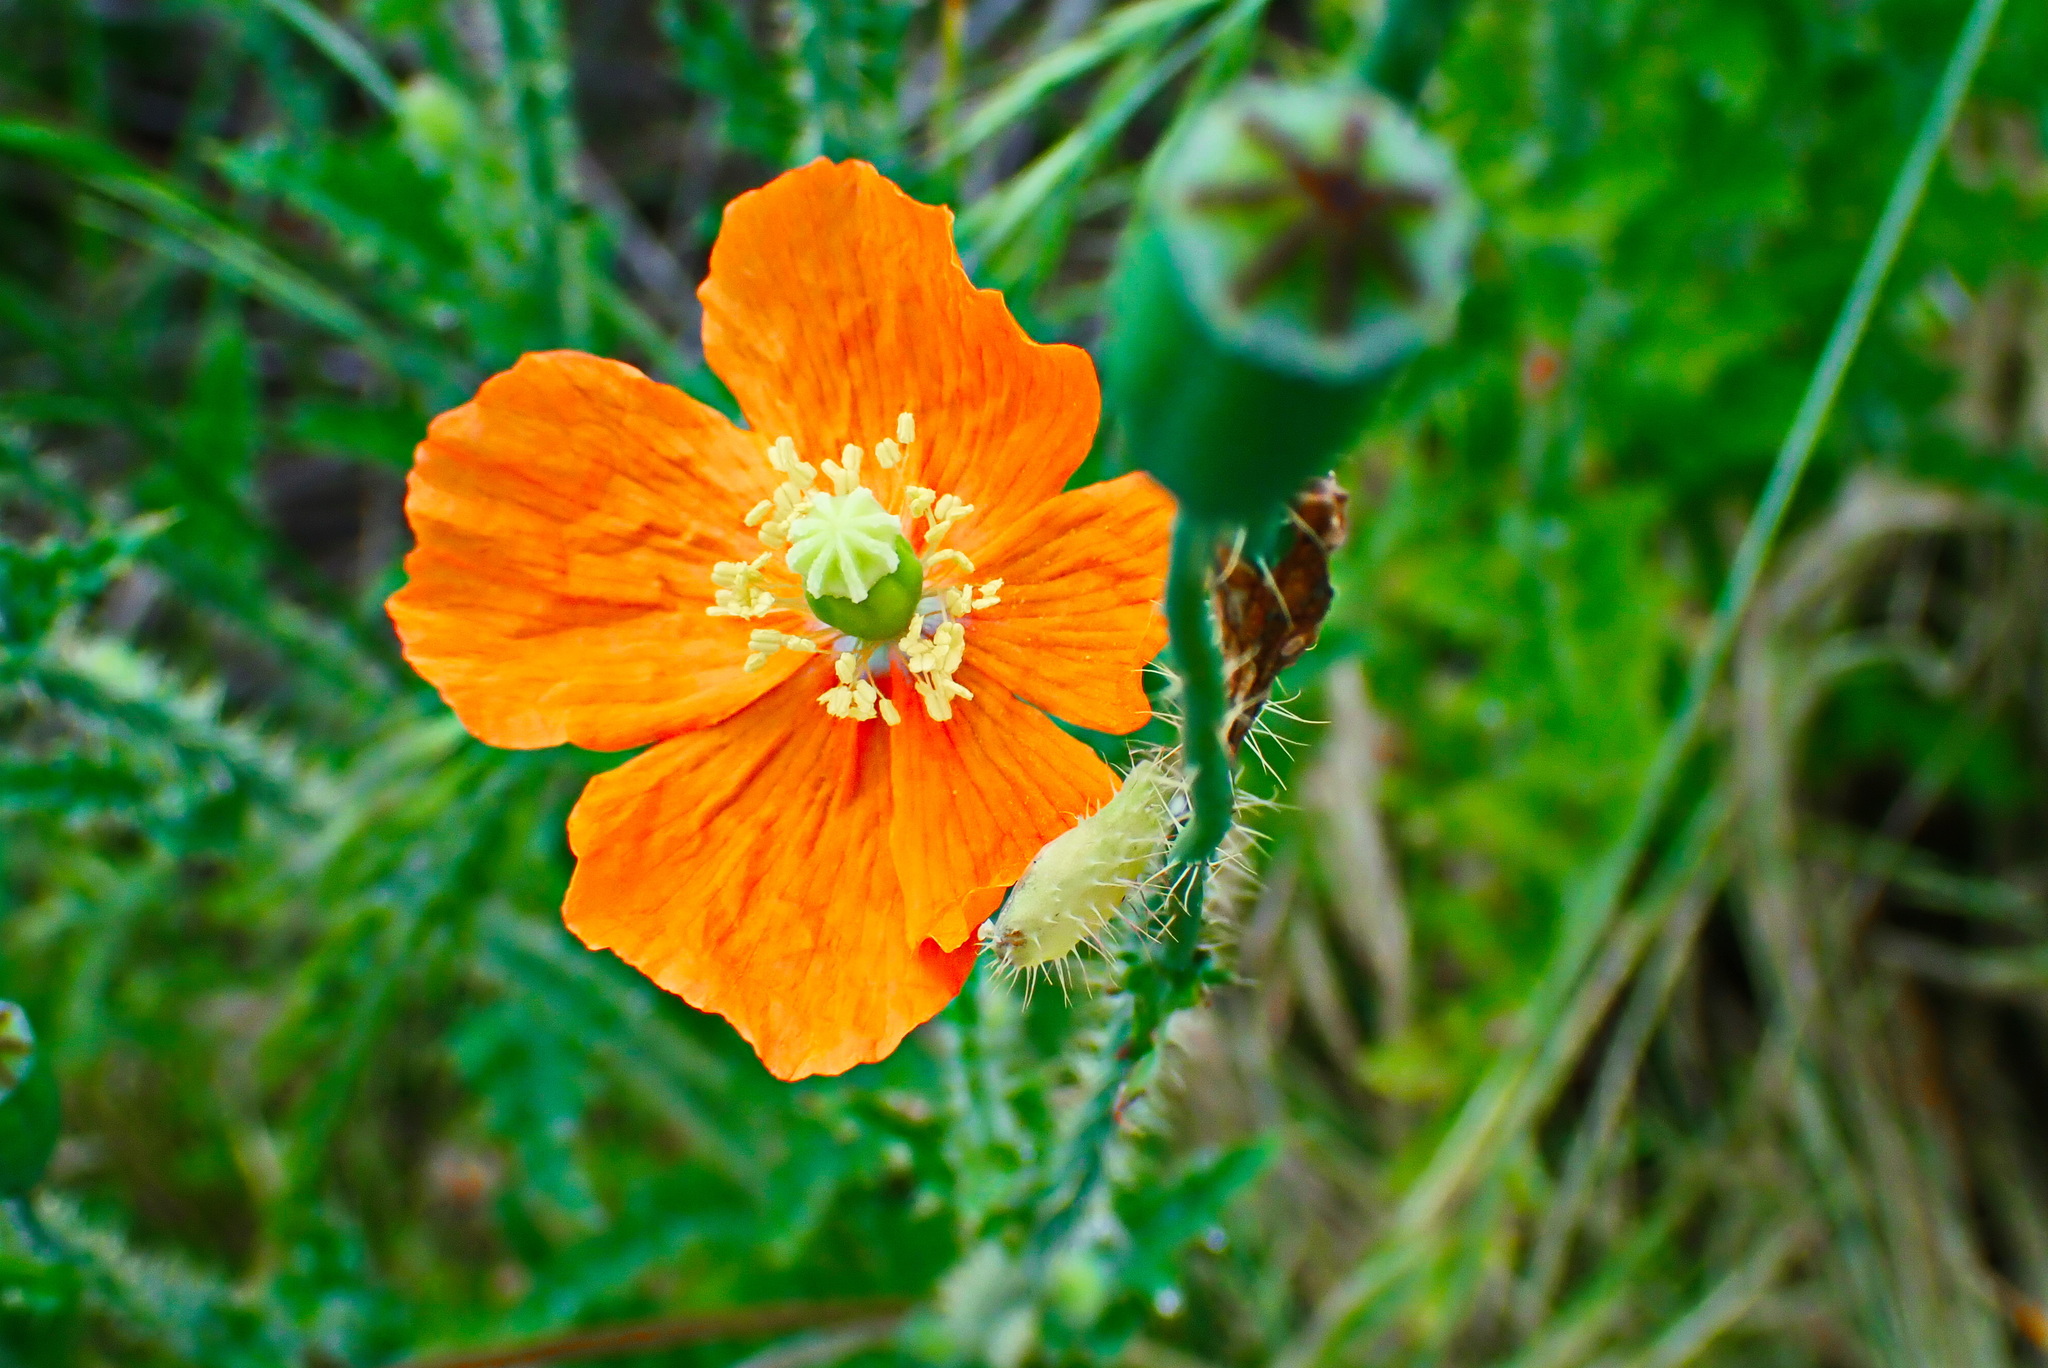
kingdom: Plantae
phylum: Tracheophyta
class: Magnoliopsida
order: Ranunculales
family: Papaveraceae
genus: Papaver
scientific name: Papaver aculeatum
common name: Bristle poppy
